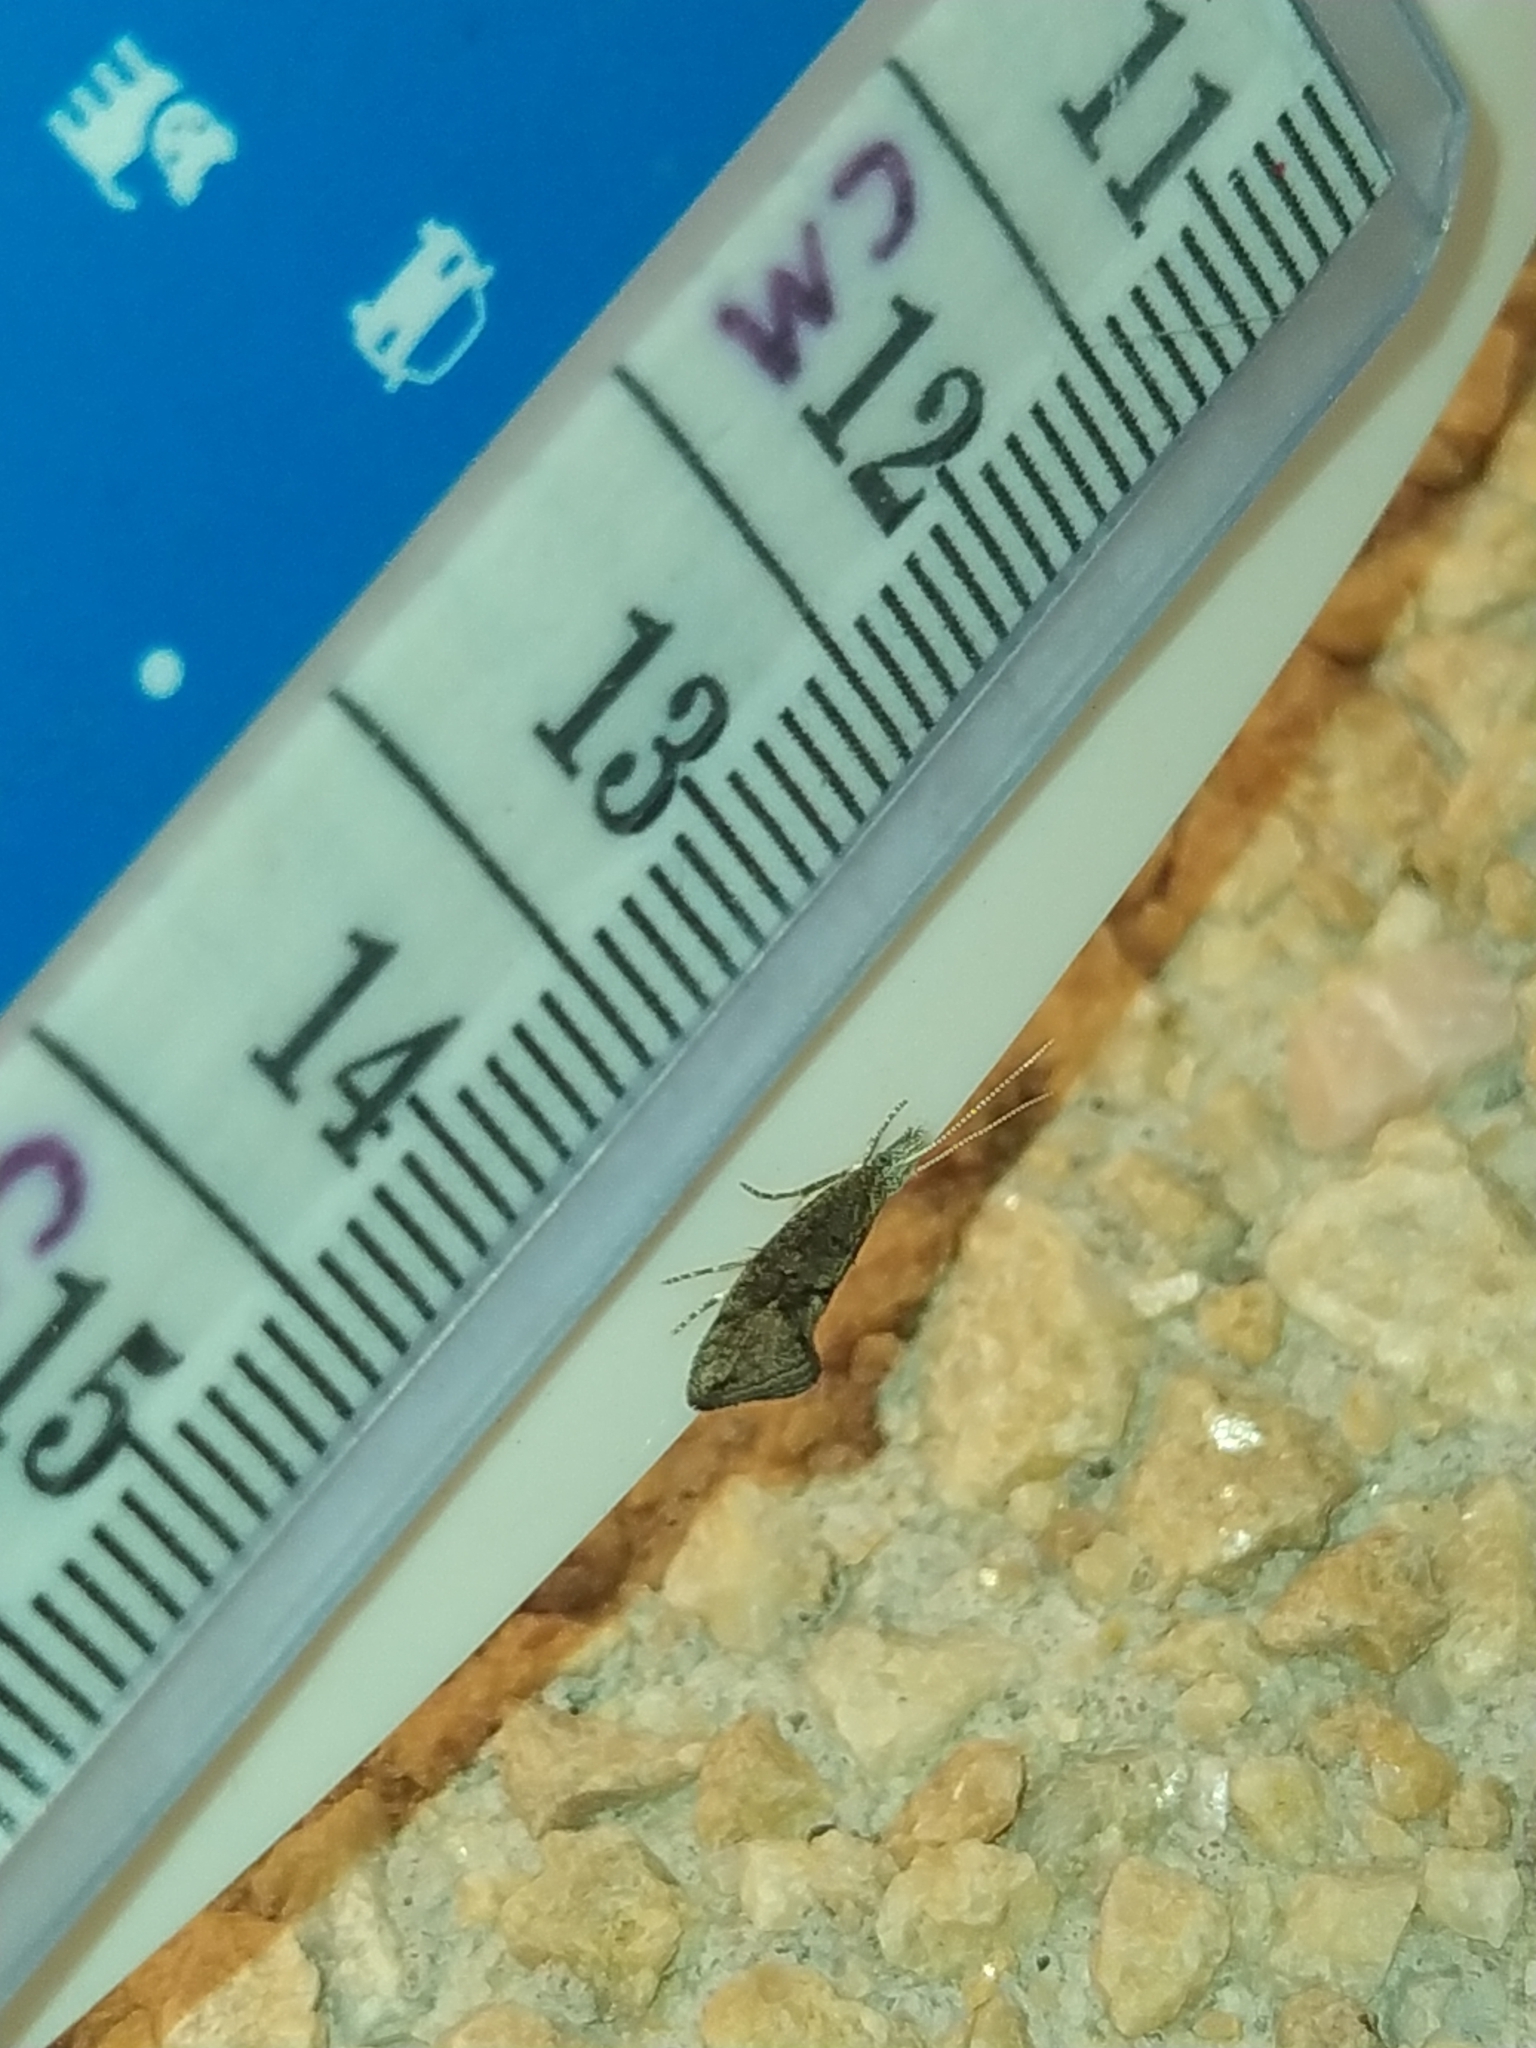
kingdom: Animalia
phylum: Arthropoda
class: Insecta
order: Lepidoptera
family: Ypsolophidae
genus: Ypsolopha
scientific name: Ypsolopha chazariella
